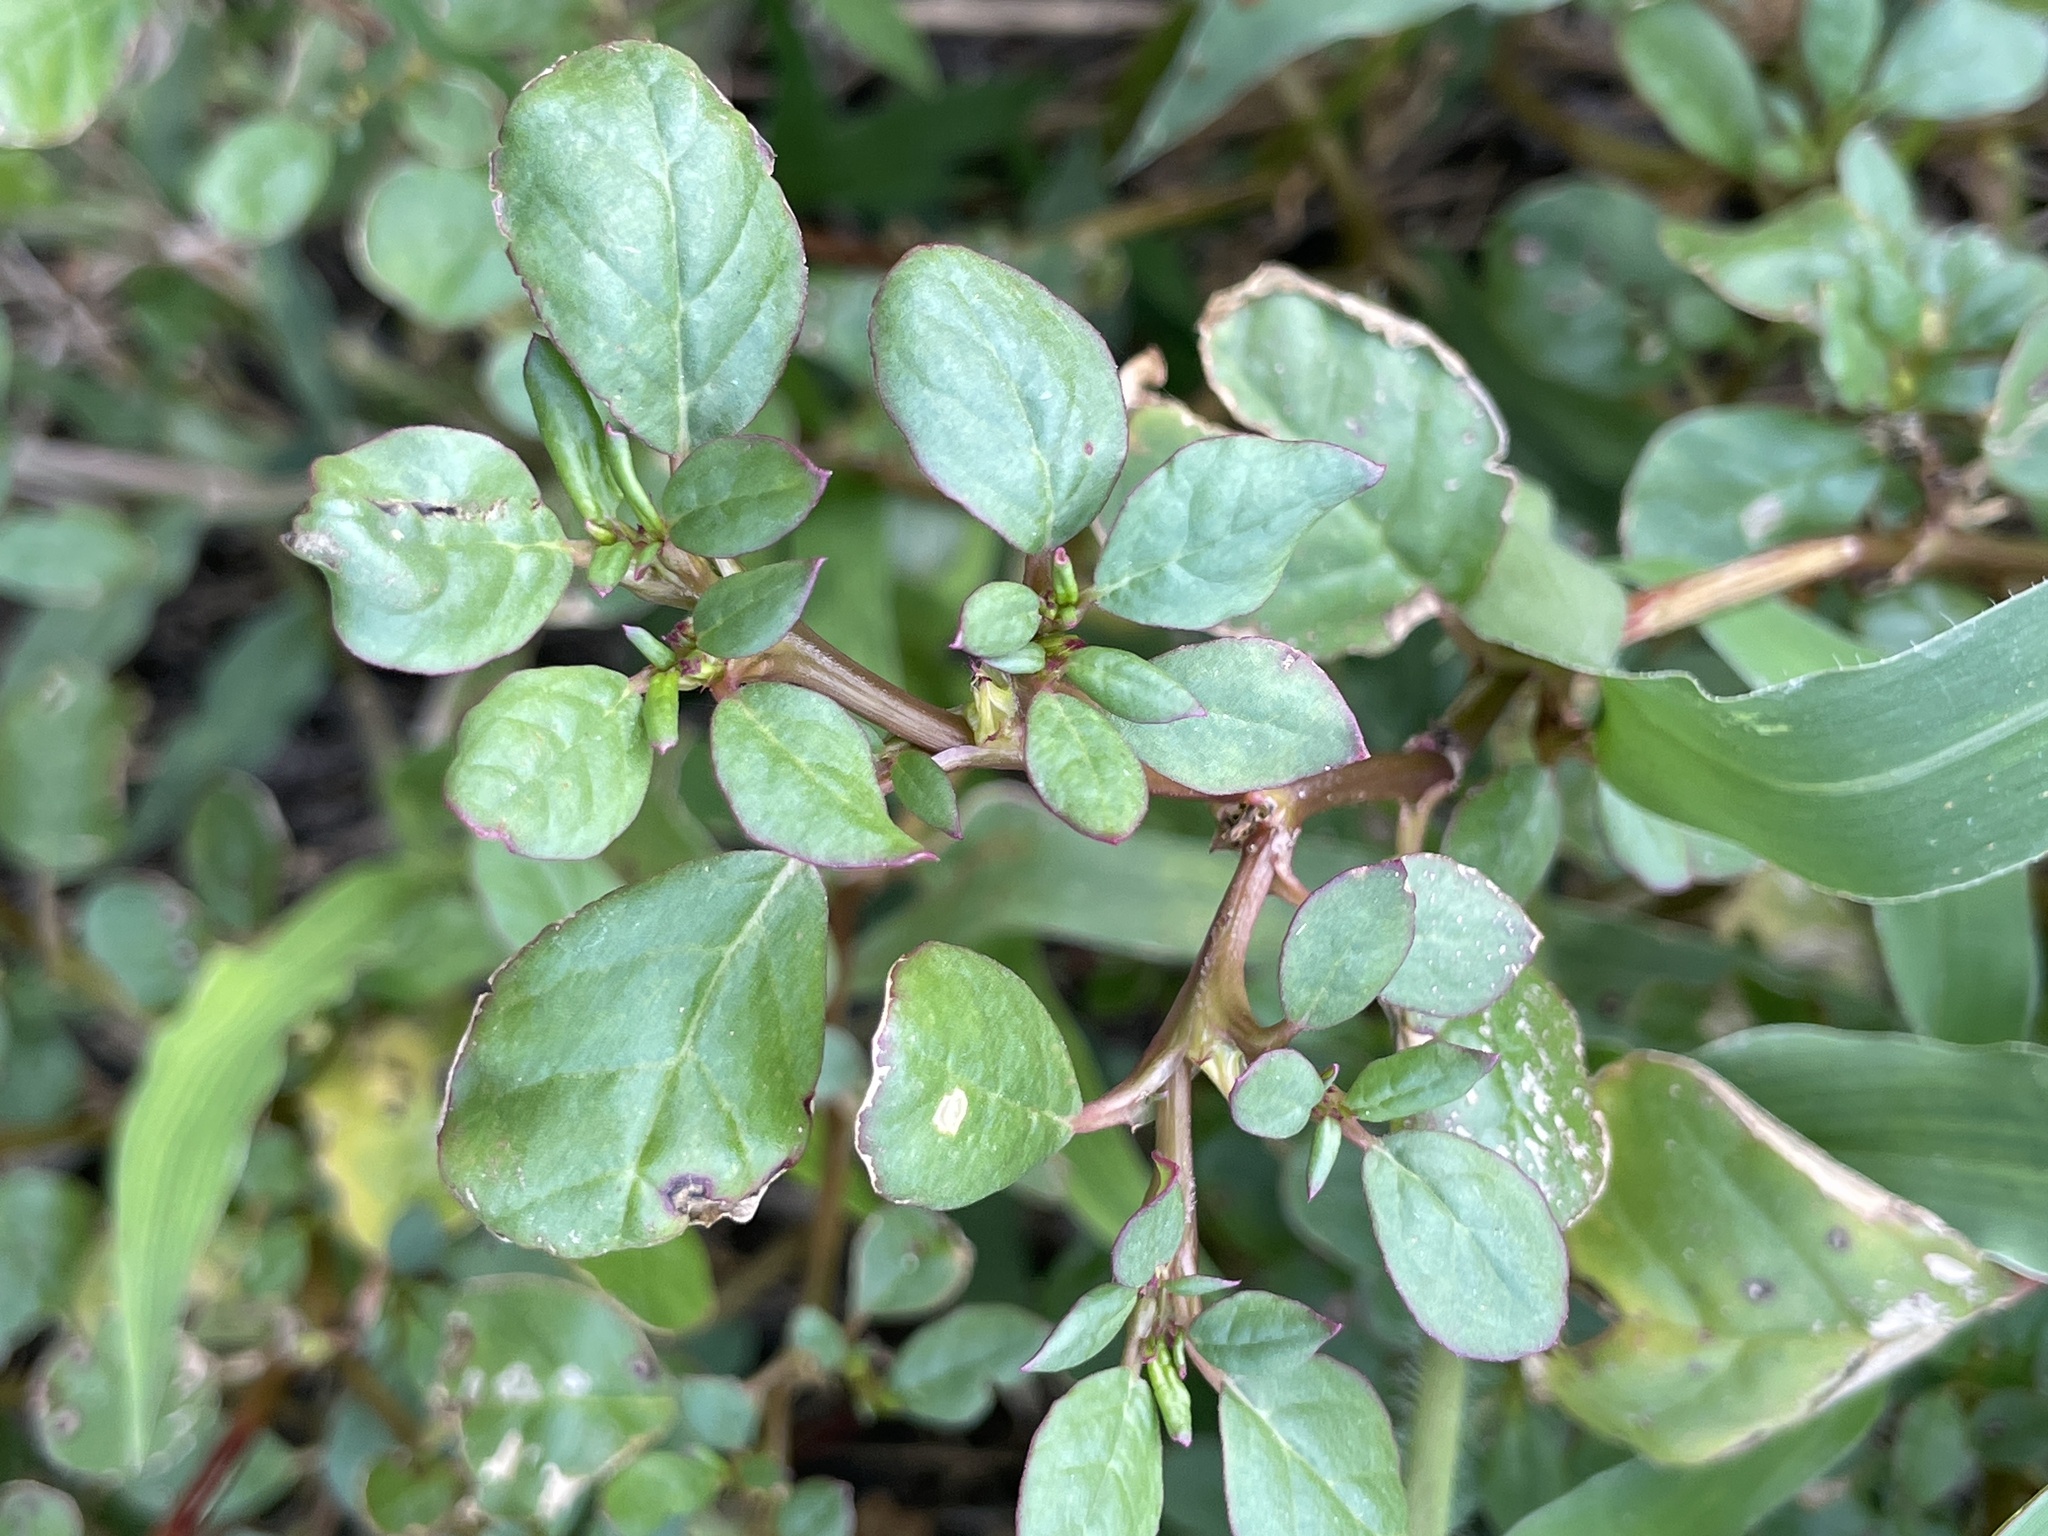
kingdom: Plantae
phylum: Tracheophyta
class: Magnoliopsida
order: Caryophyllales
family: Aizoaceae
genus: Trianthema
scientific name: Trianthema portulacastrum
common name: Desert horsepurslane
